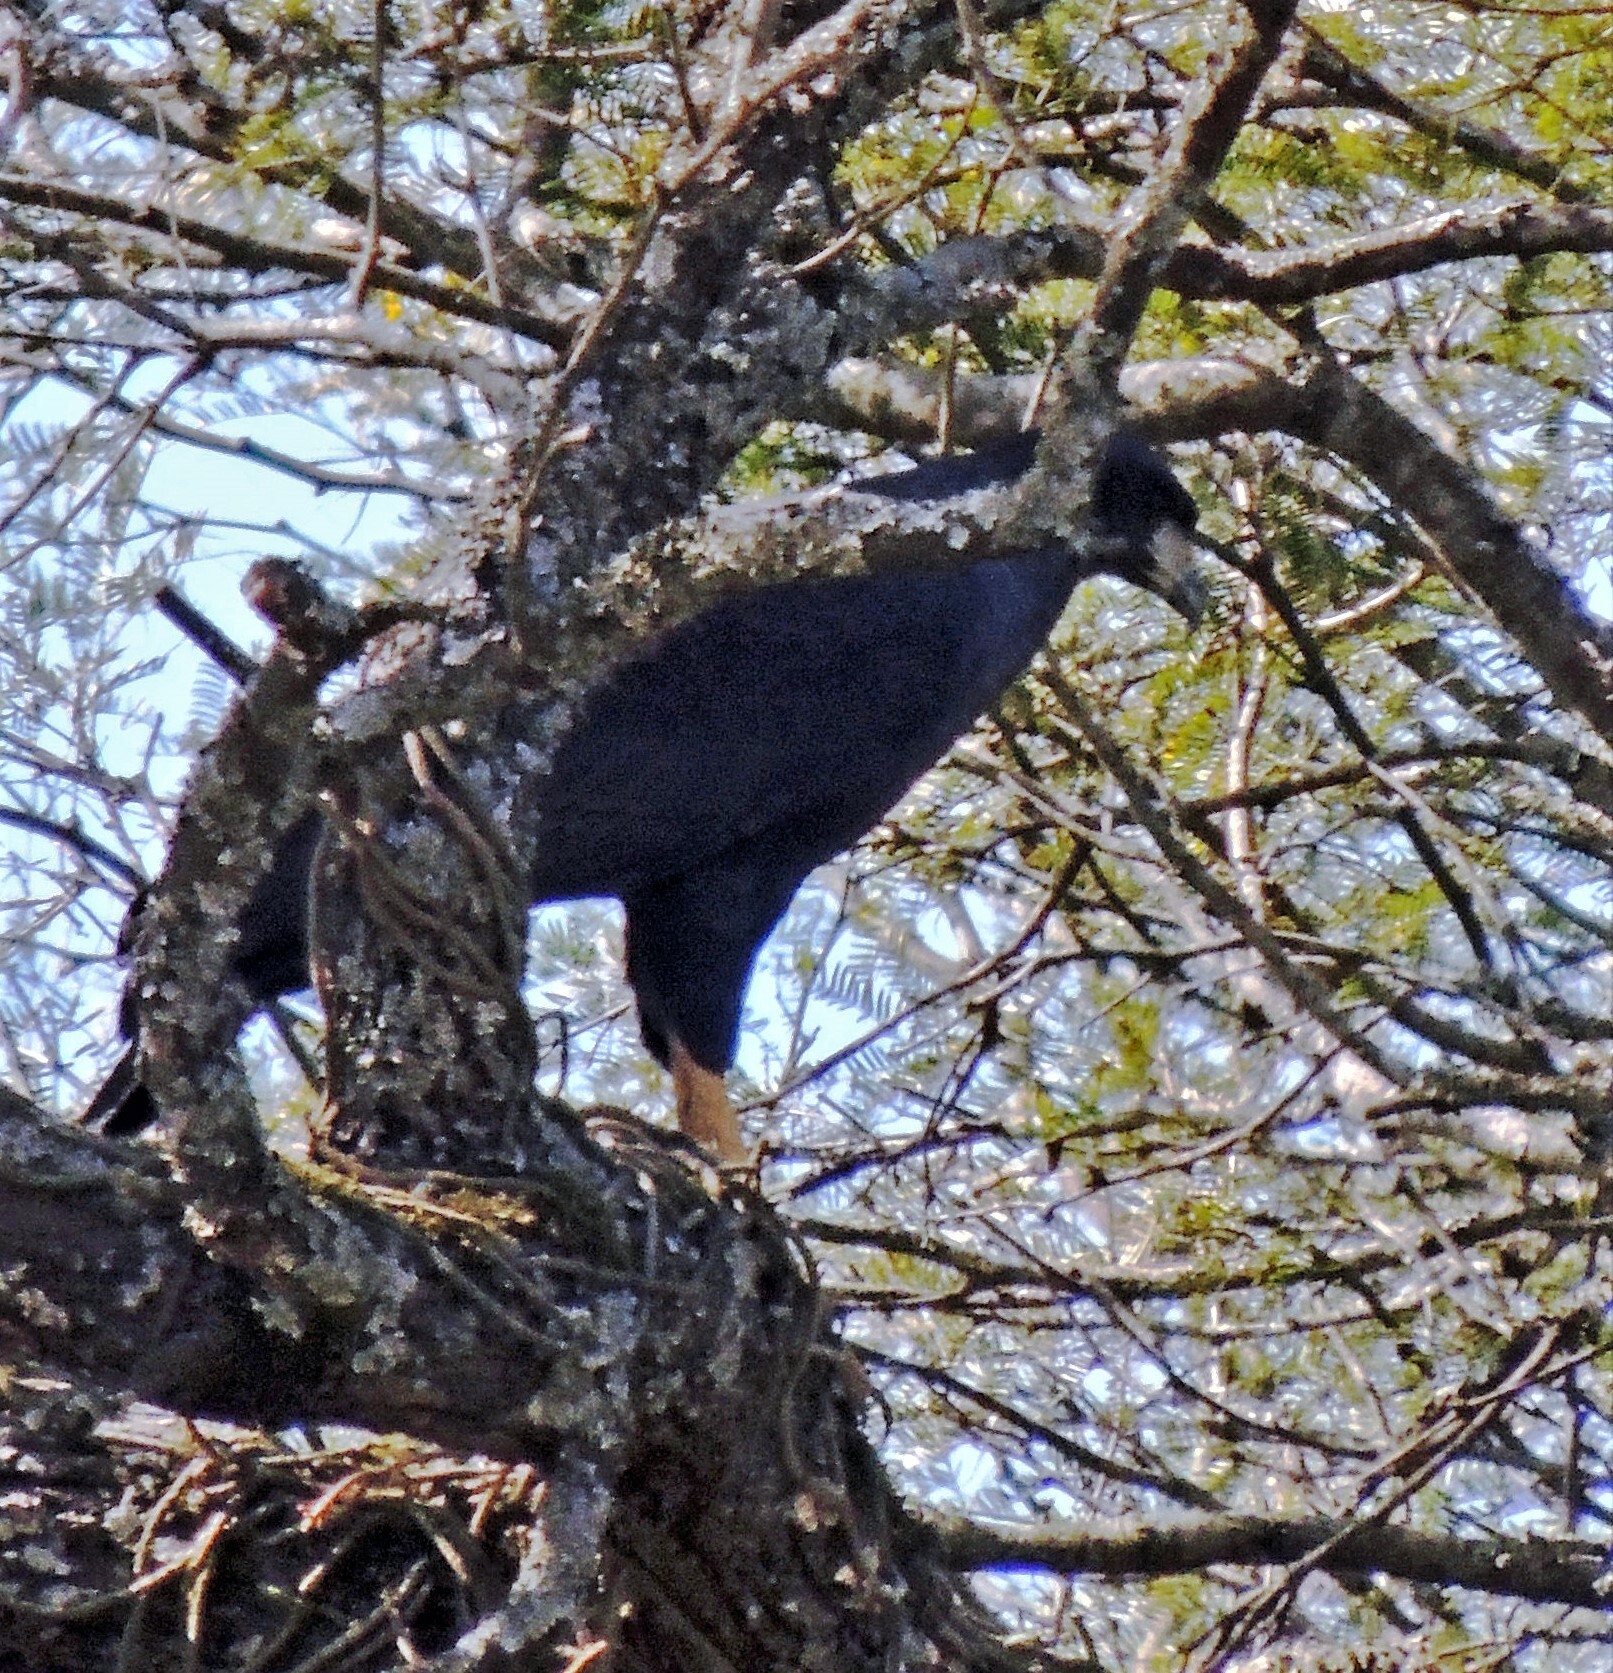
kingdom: Animalia
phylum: Chordata
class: Aves
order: Accipitriformes
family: Accipitridae
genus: Buteogallus
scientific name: Buteogallus urubitinga
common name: Great black hawk
